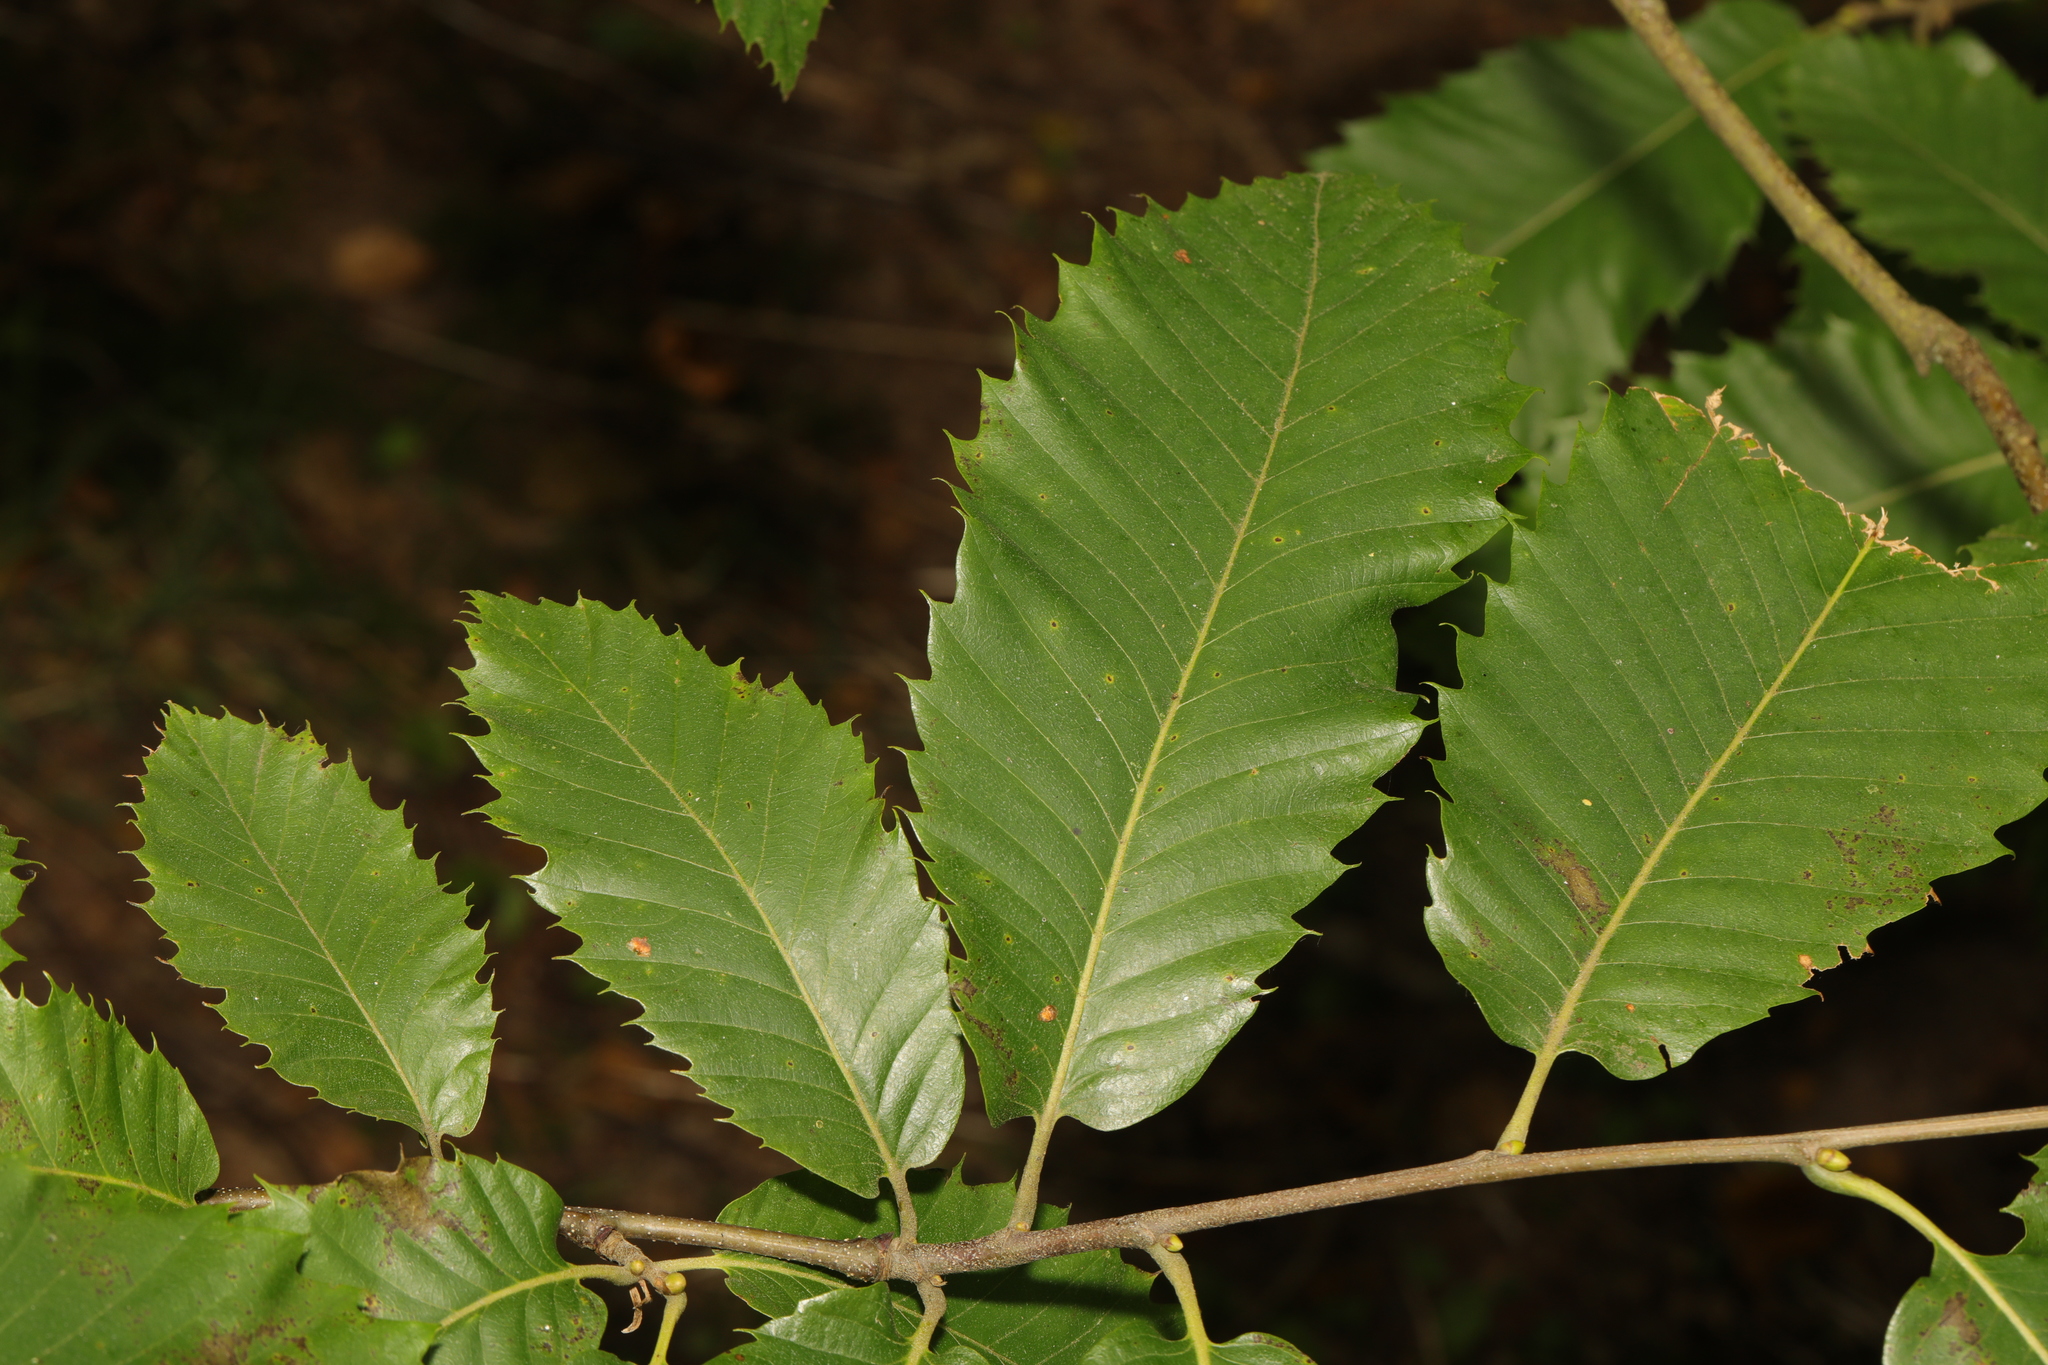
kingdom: Plantae
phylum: Tracheophyta
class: Magnoliopsida
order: Fagales
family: Fagaceae
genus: Castanea
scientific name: Castanea sativa
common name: Sweet chestnut
